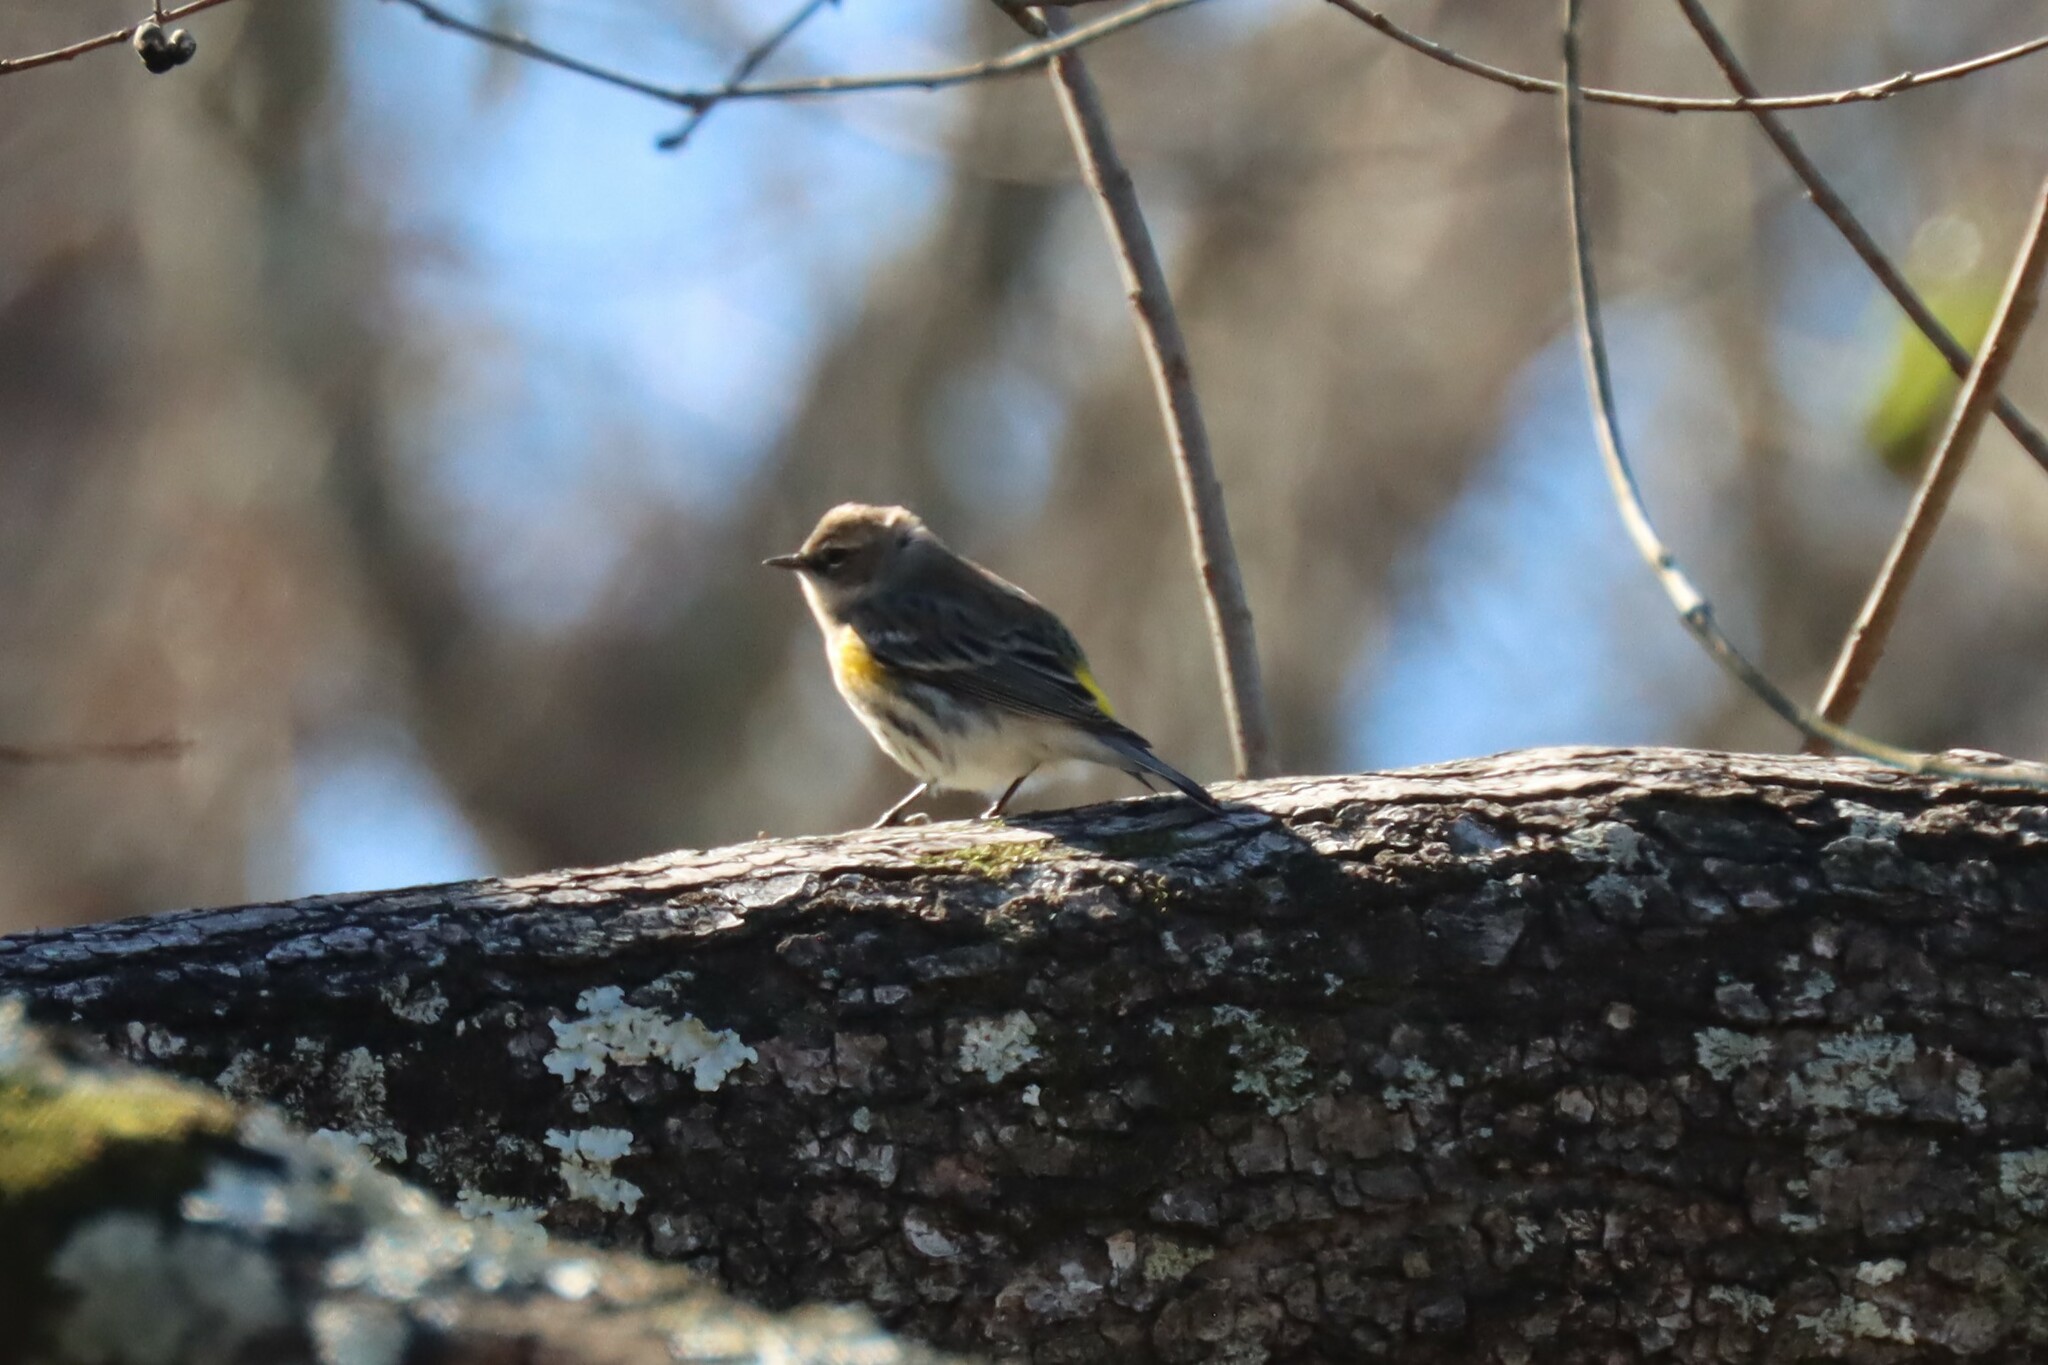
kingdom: Animalia
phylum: Chordata
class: Aves
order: Passeriformes
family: Parulidae
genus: Setophaga
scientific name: Setophaga coronata
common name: Myrtle warbler
